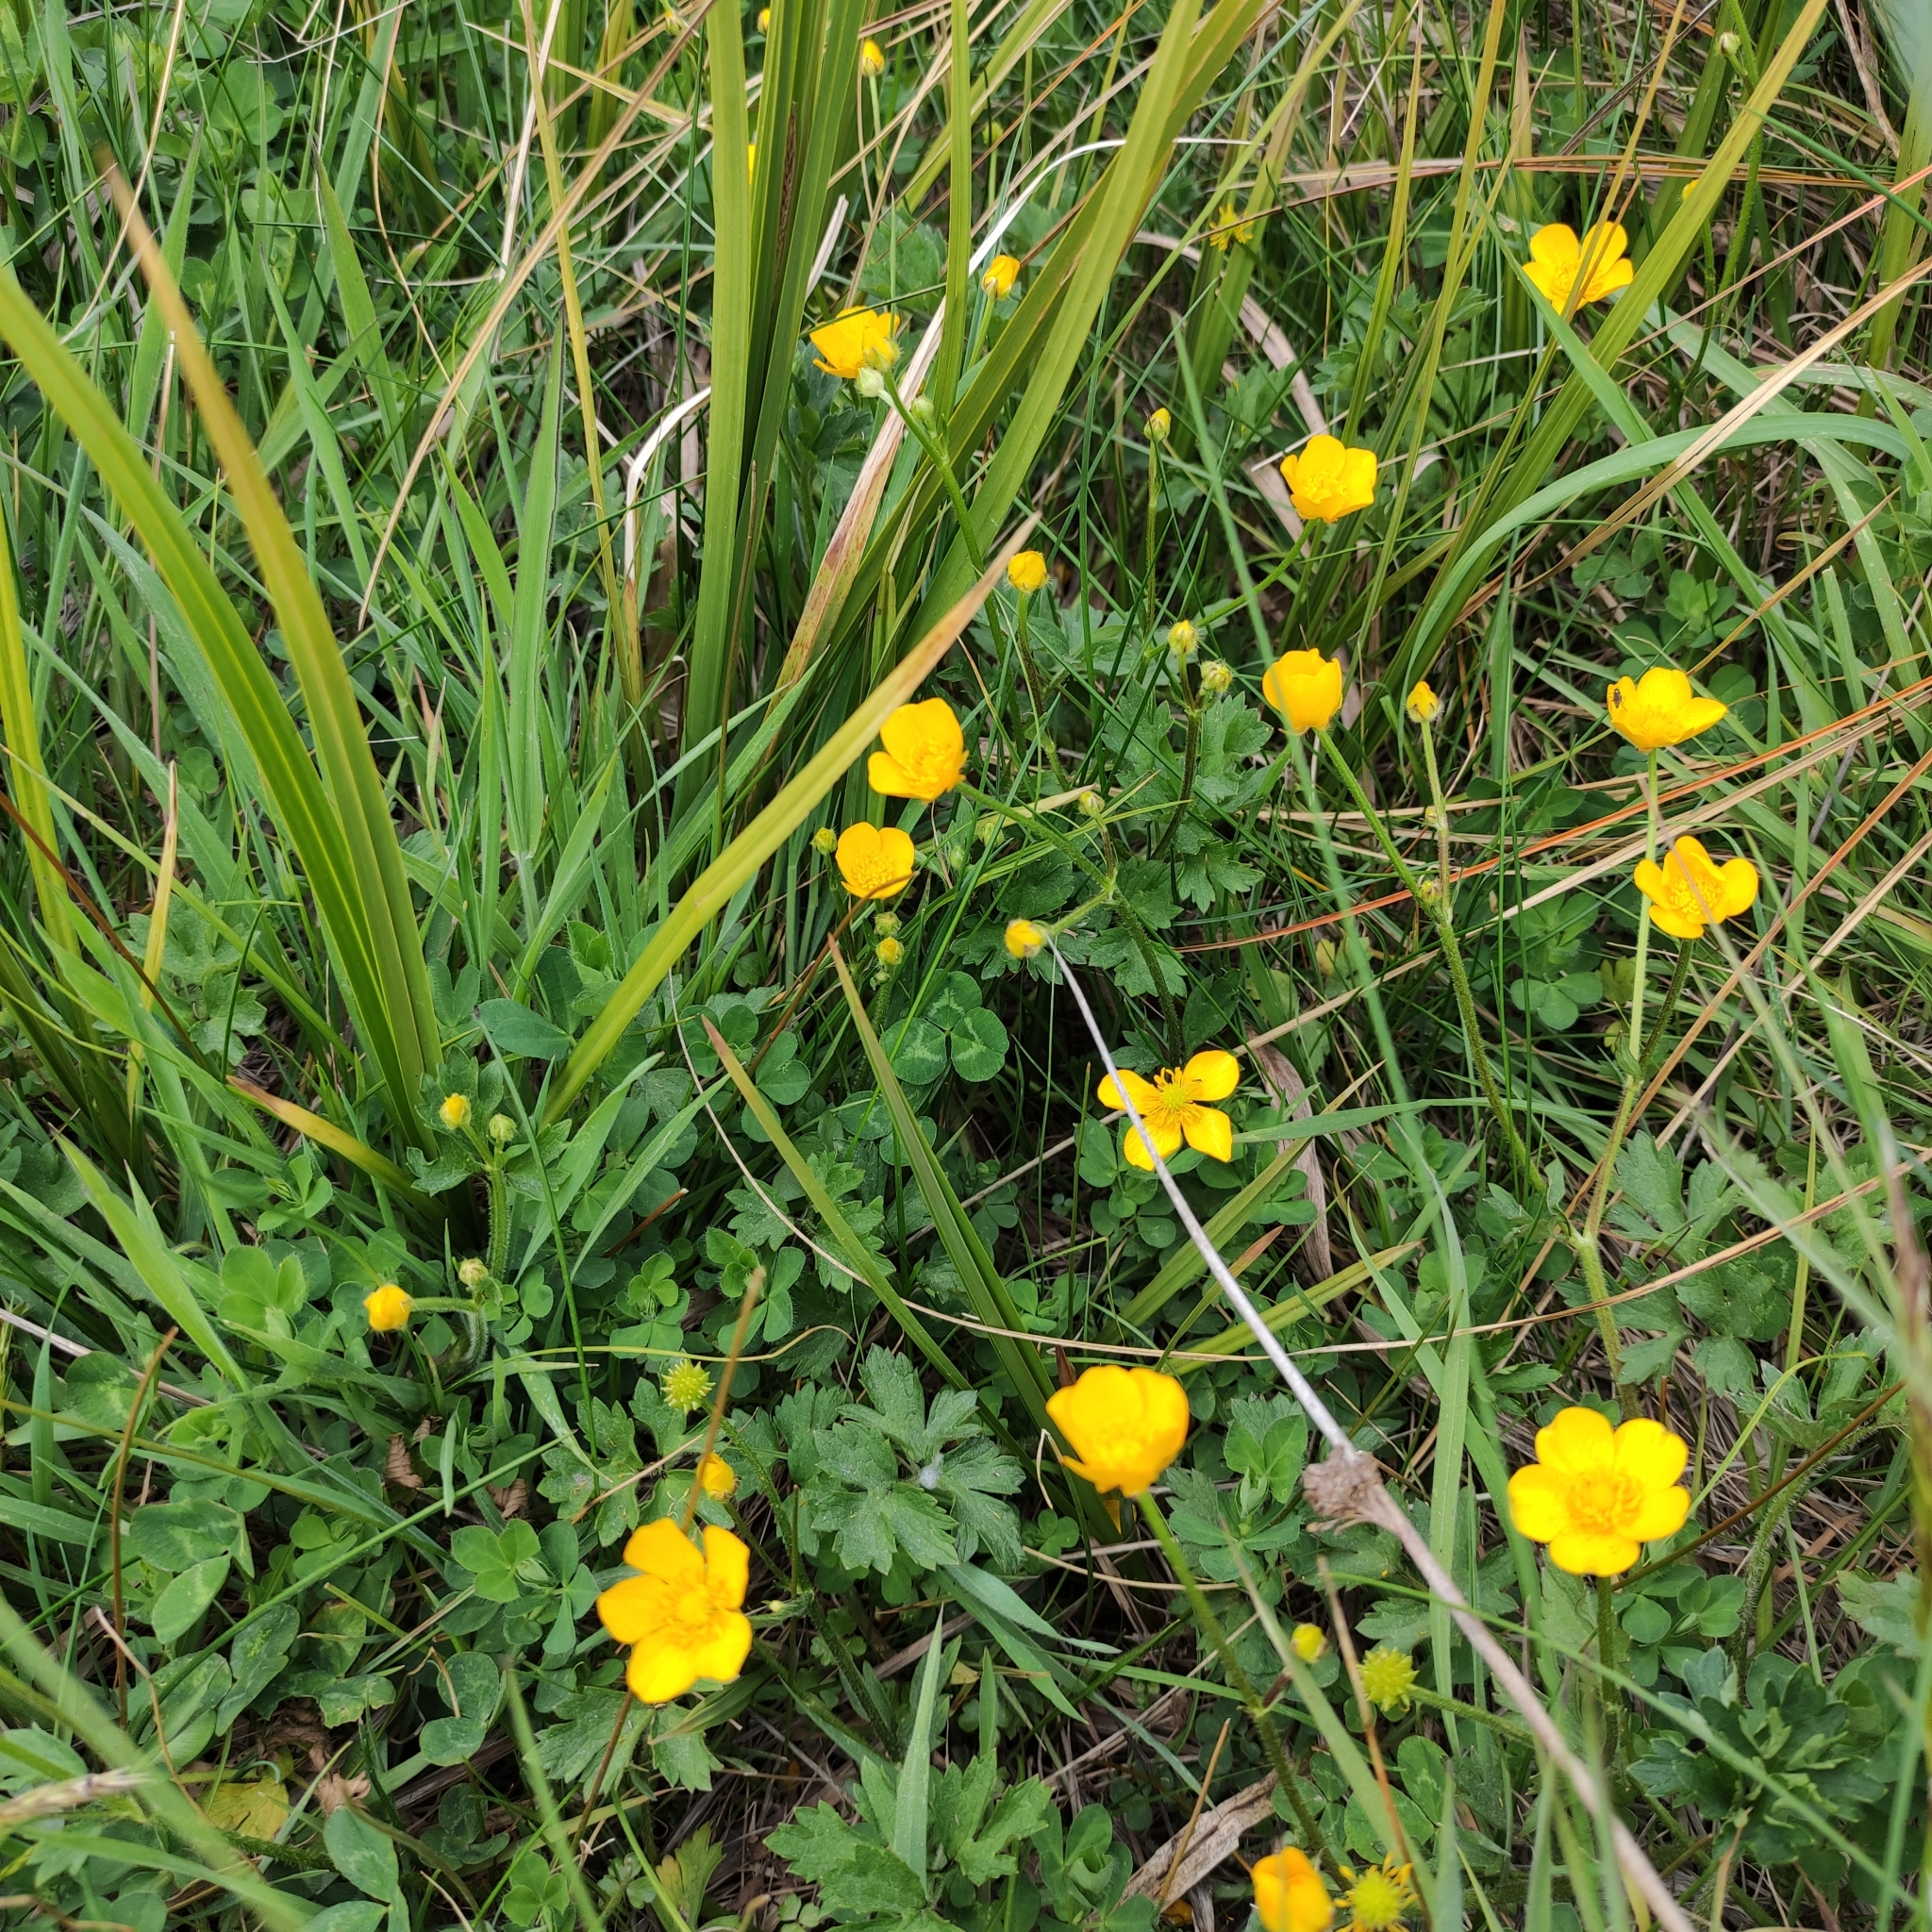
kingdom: Plantae
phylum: Tracheophyta
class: Magnoliopsida
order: Ranunculales
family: Ranunculaceae
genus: Ranunculus
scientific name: Ranunculus repens
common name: Creeping buttercup
